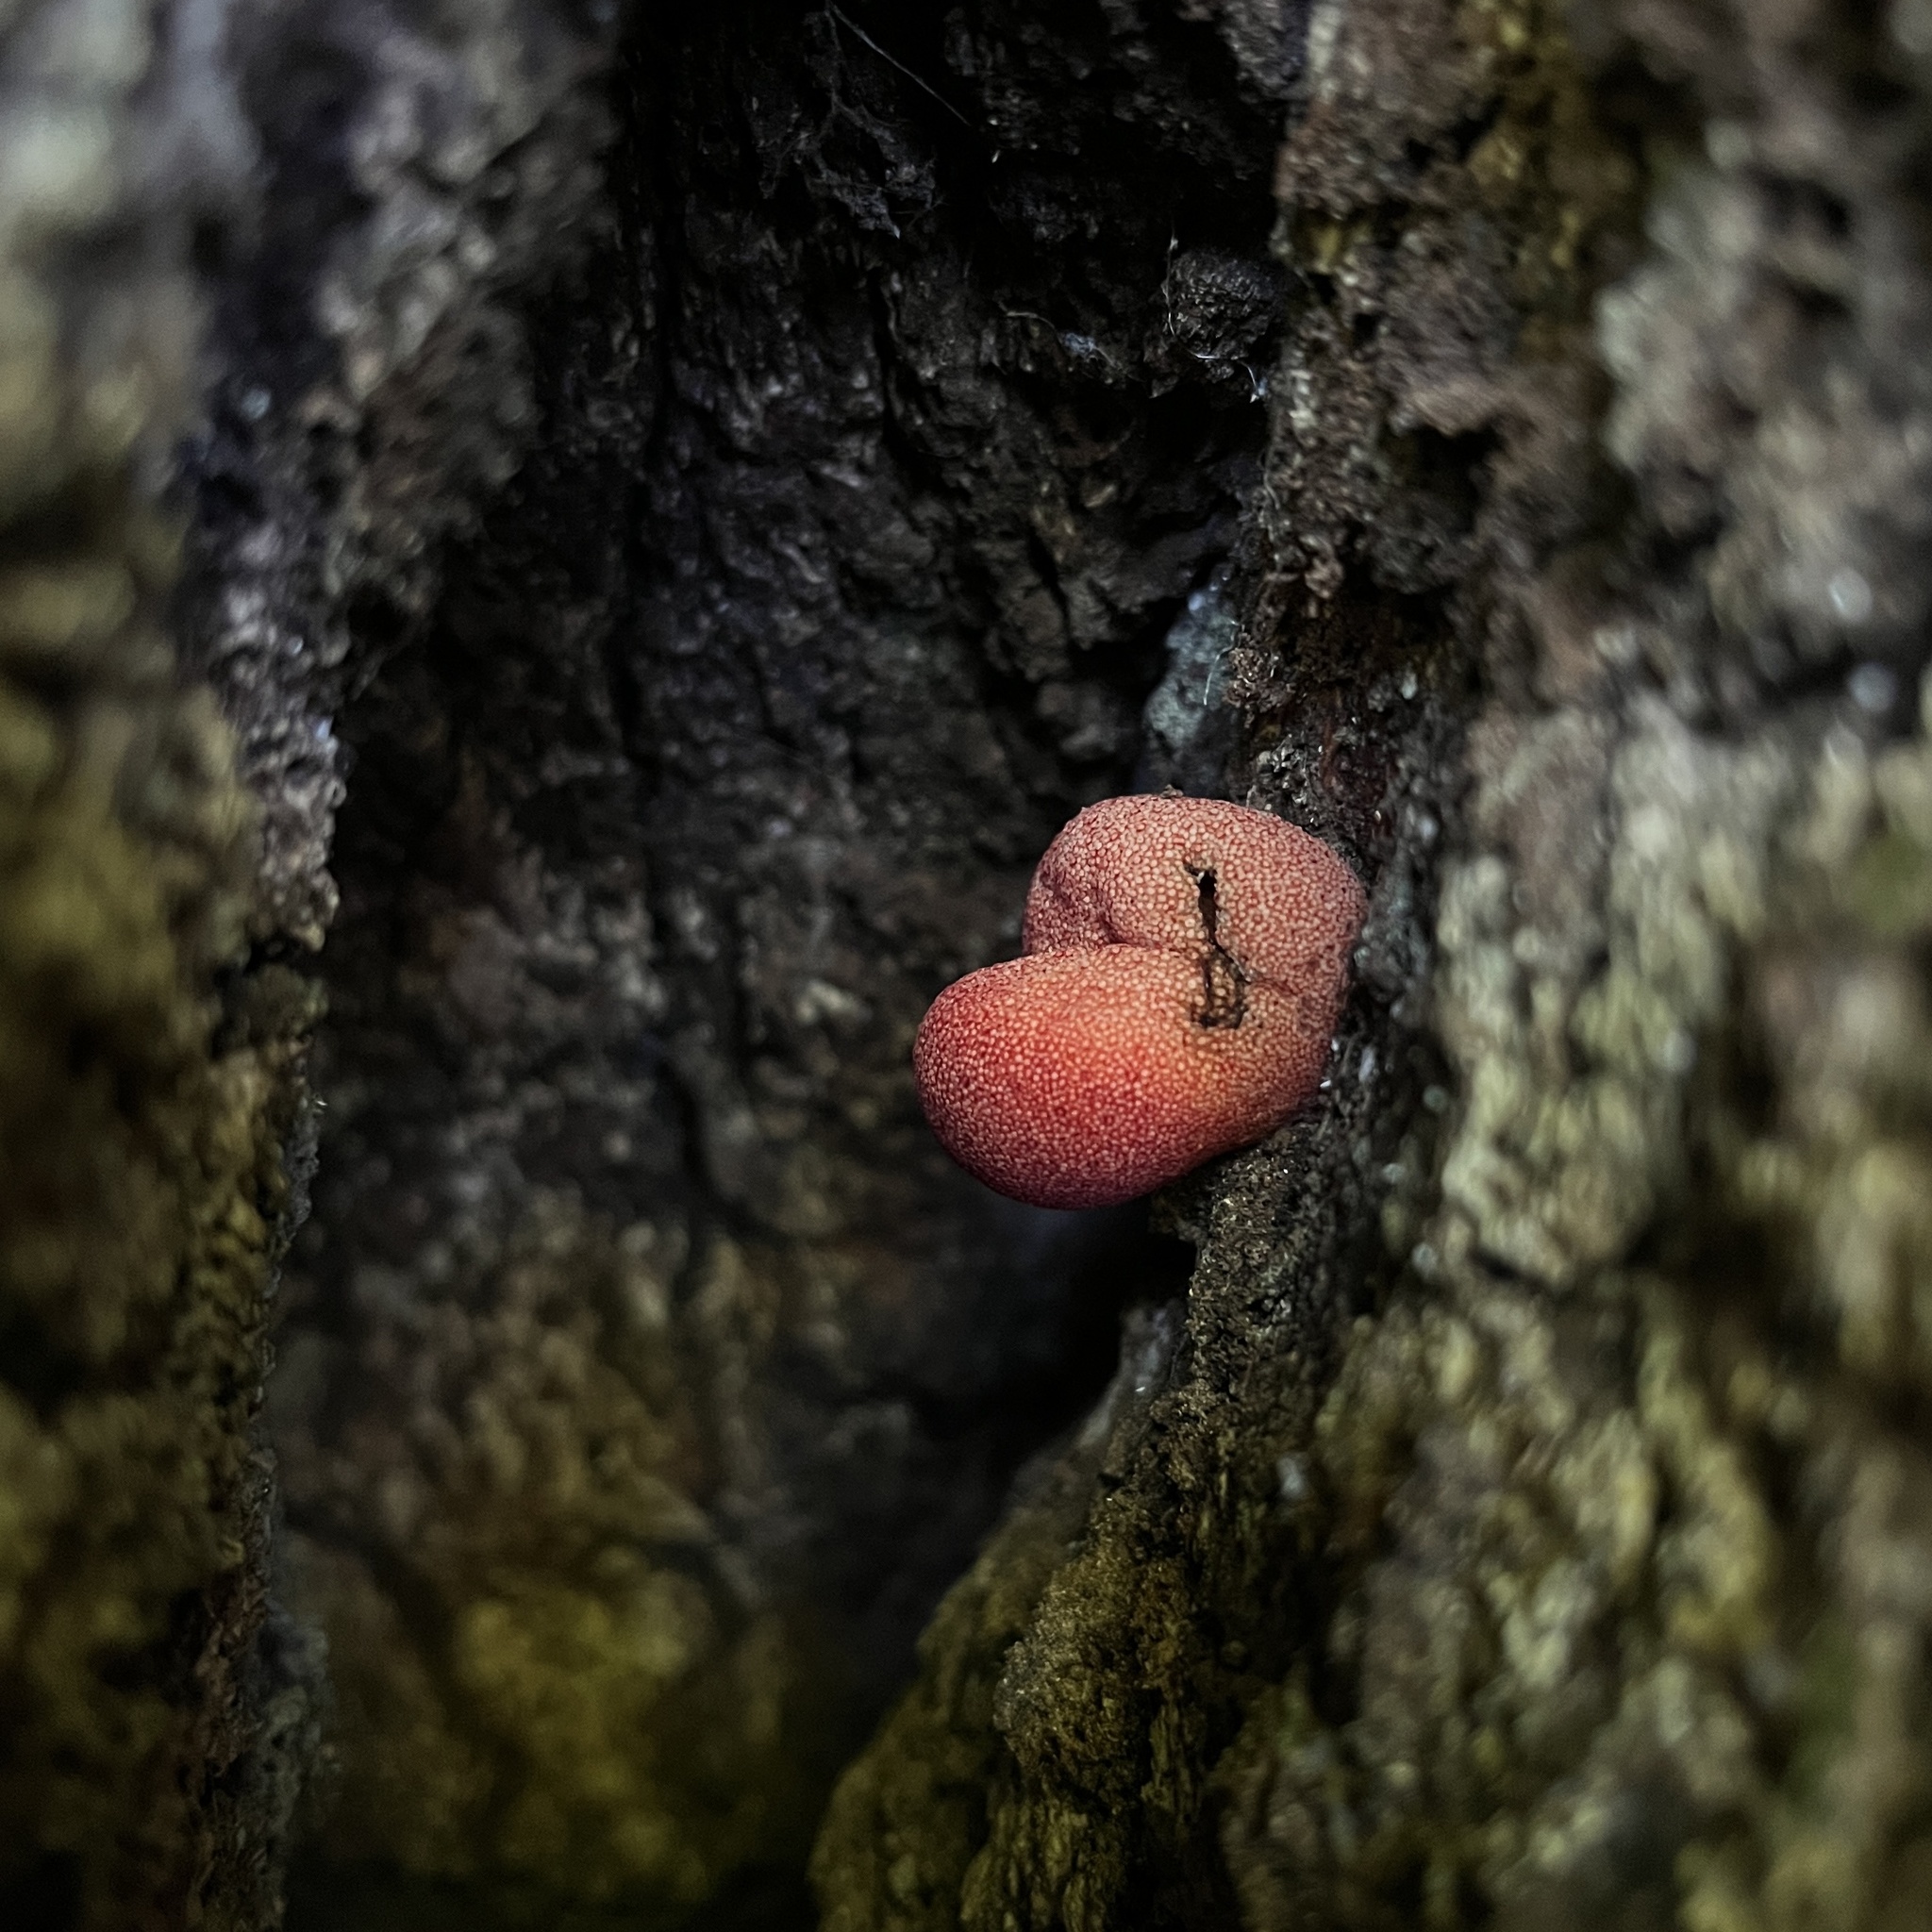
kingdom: Fungi
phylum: Basidiomycota
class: Agaricomycetes
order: Agaricales
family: Fistulinaceae
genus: Fistulina
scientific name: Fistulina antarctica
